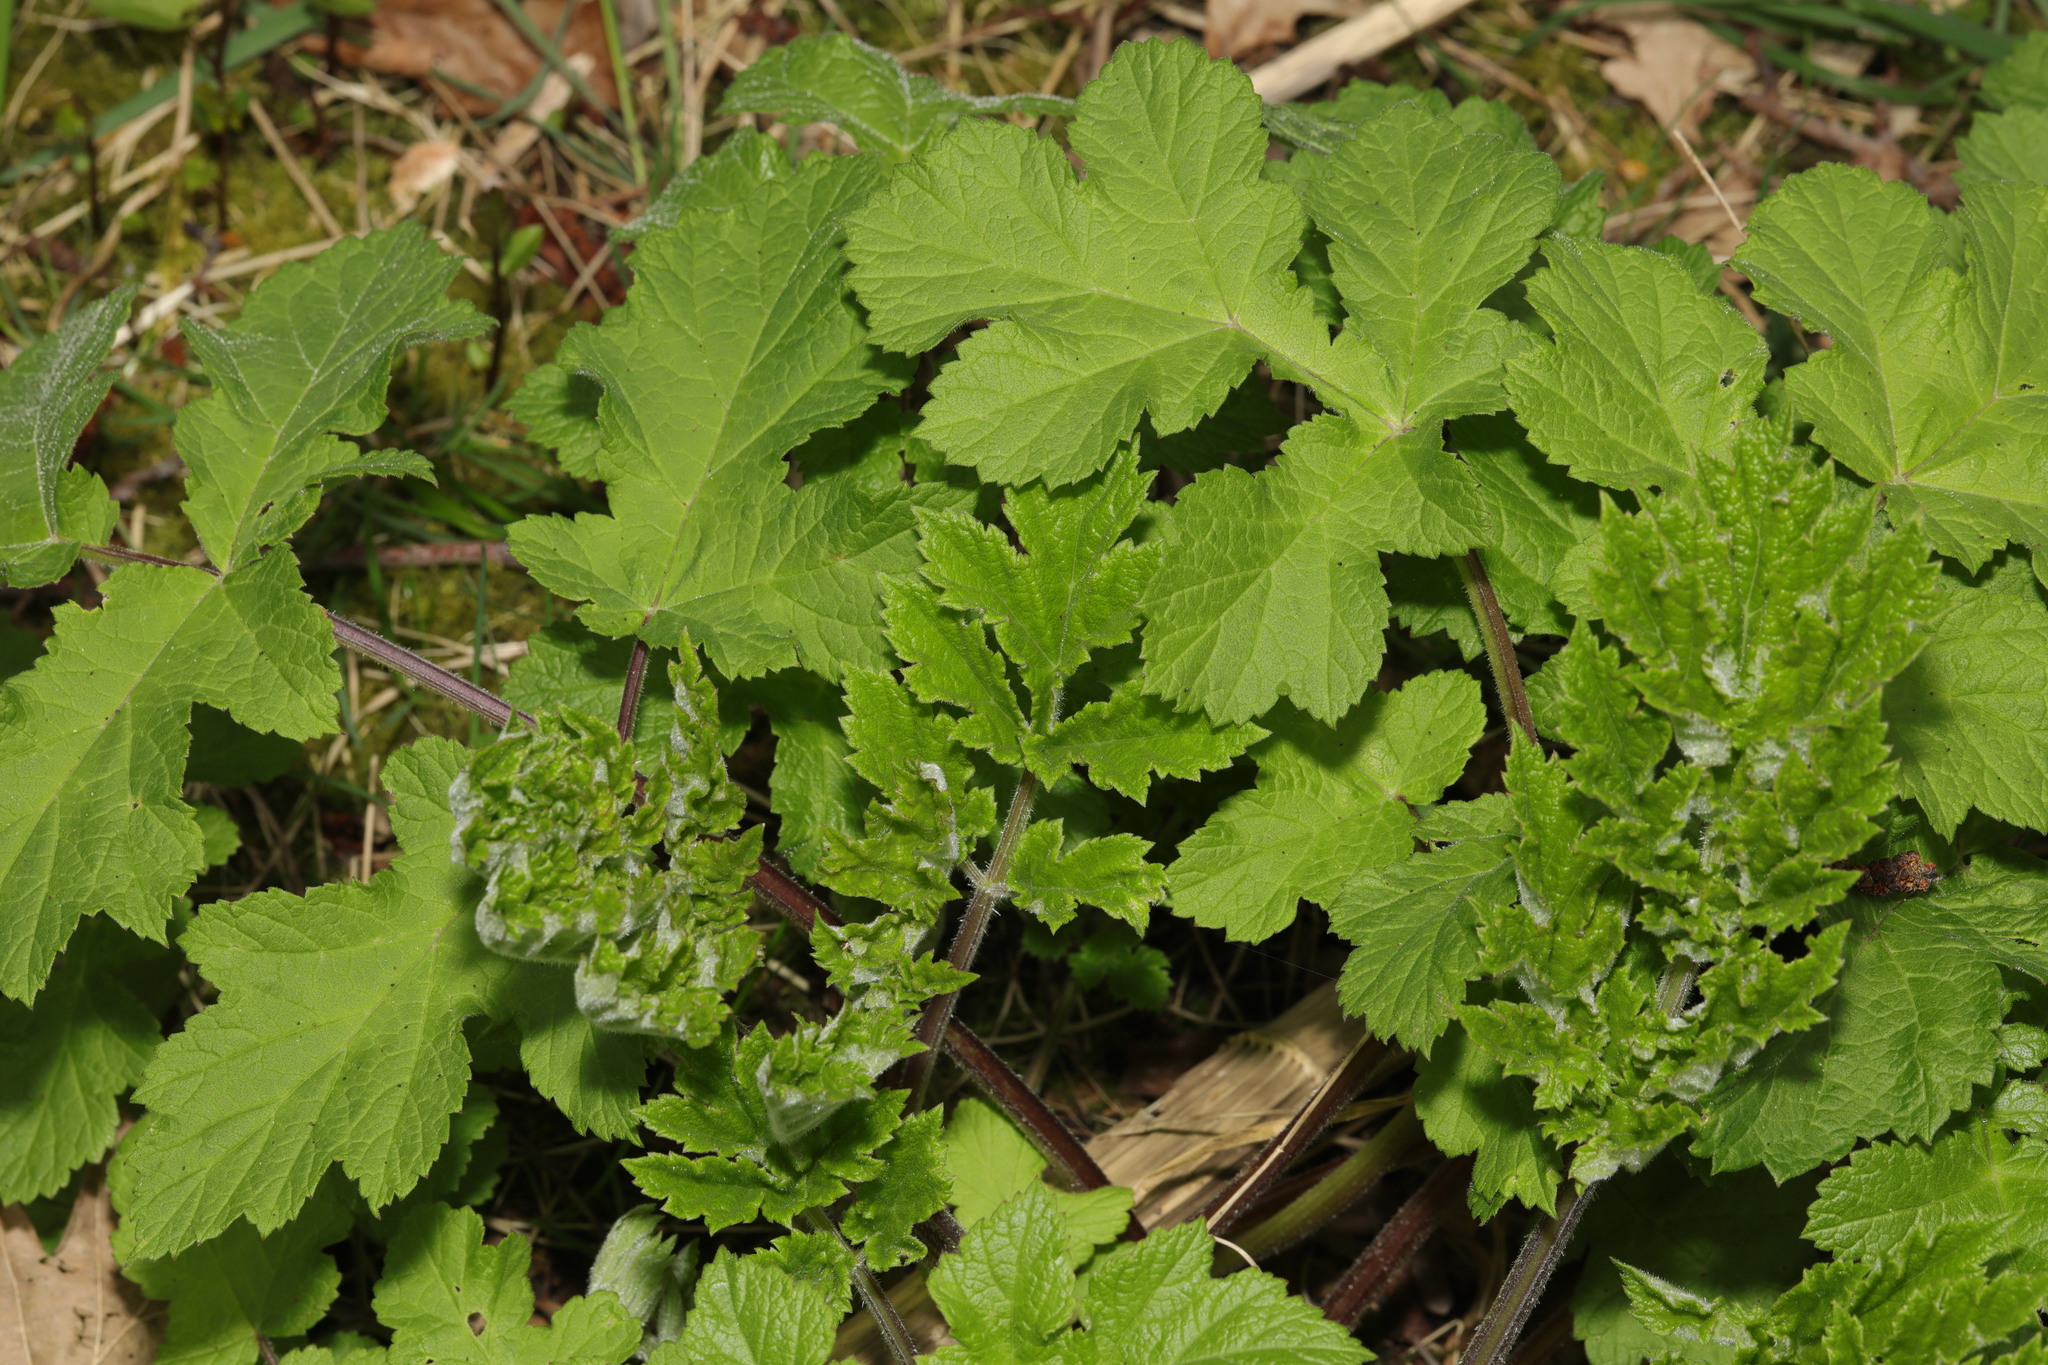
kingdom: Plantae
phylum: Tracheophyta
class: Magnoliopsida
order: Apiales
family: Apiaceae
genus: Heracleum
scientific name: Heracleum sphondylium
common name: Hogweed
